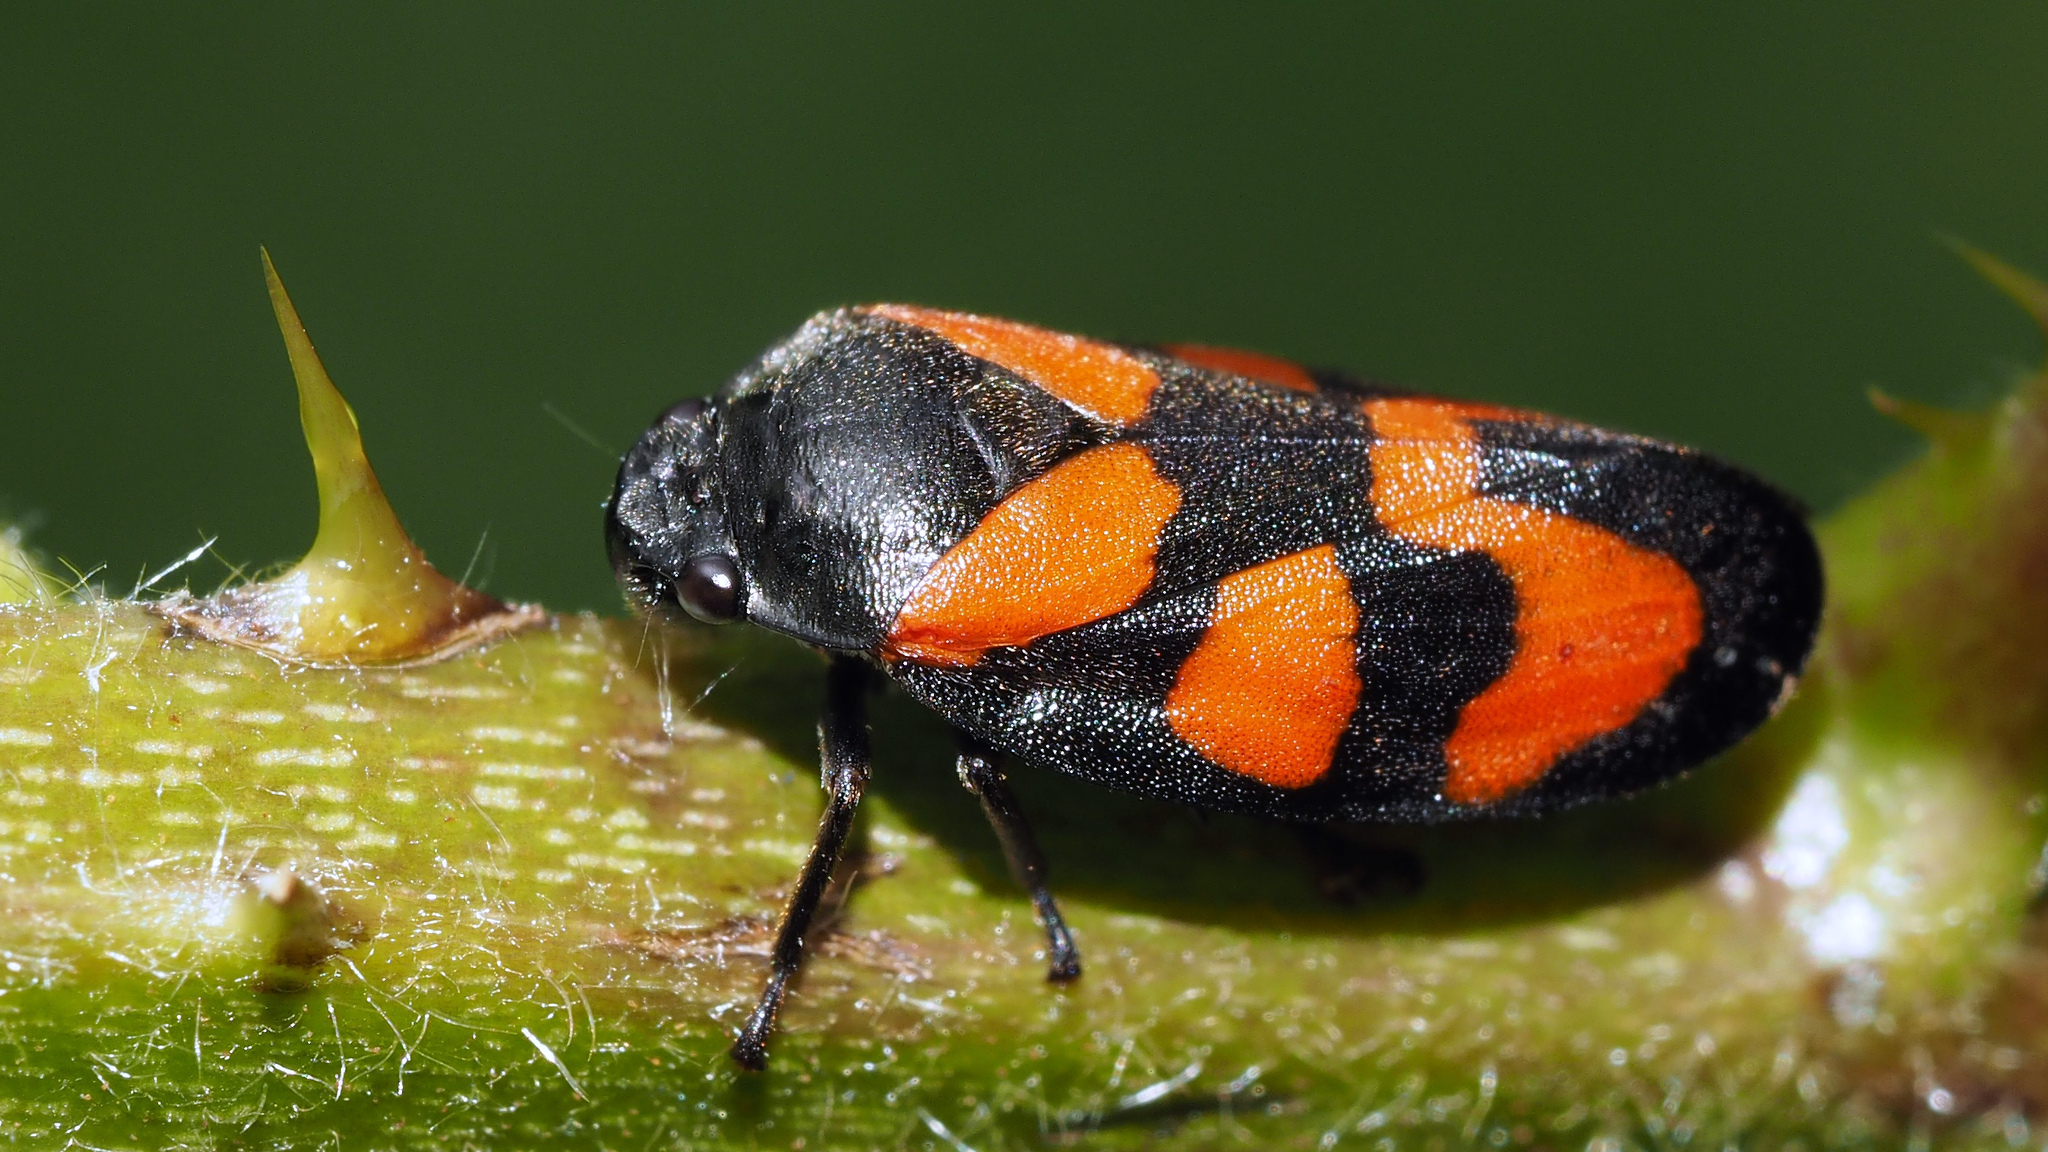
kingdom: Animalia
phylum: Arthropoda
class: Insecta
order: Hemiptera
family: Cercopidae
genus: Cercopis
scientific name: Cercopis vulnerata
